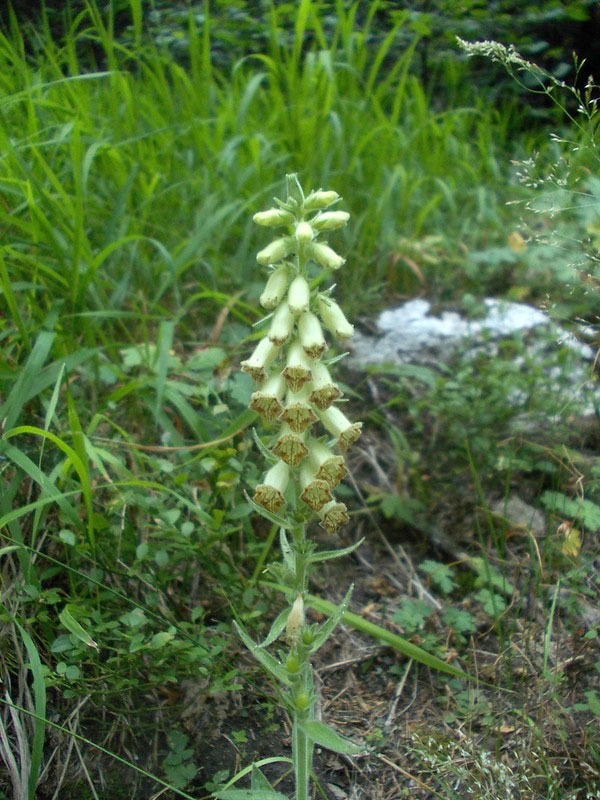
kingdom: Plantae
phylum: Tracheophyta
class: Magnoliopsida
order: Lamiales
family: Plantaginaceae
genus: Digitalis
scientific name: Digitalis viridiflora
